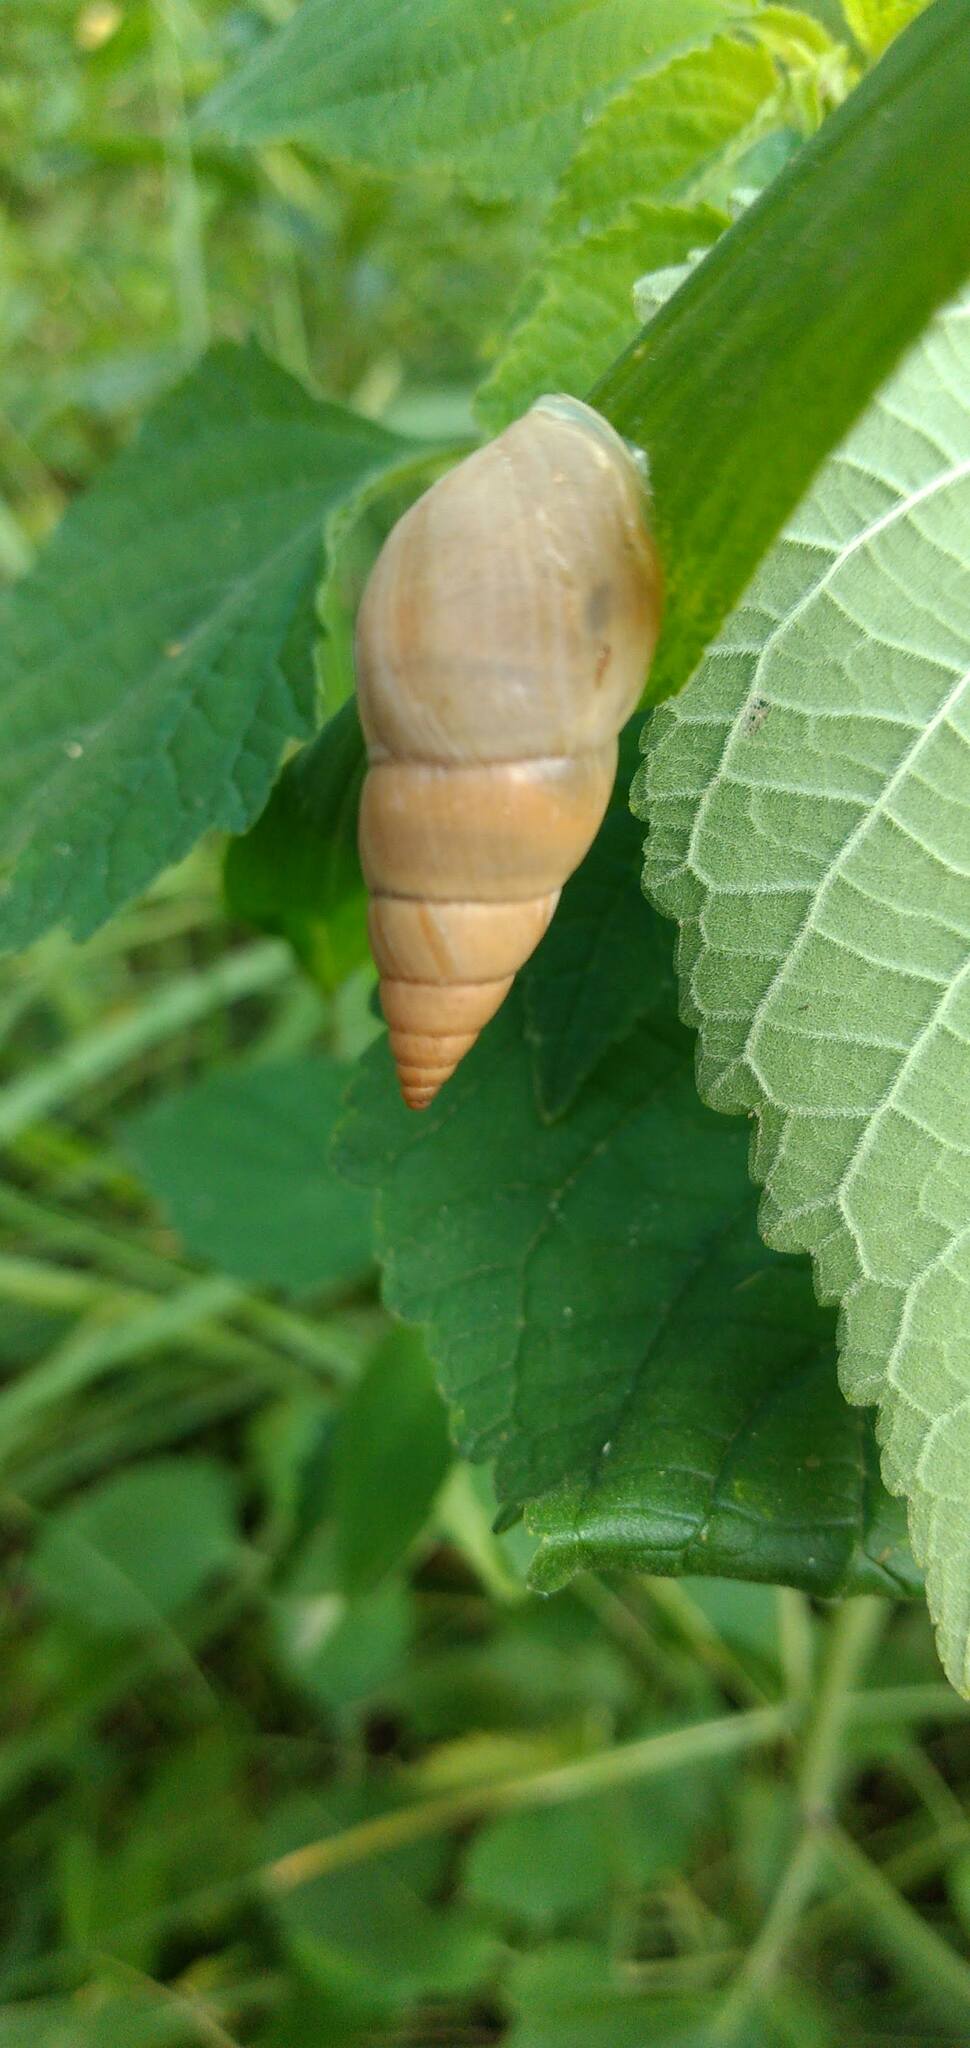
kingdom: Animalia
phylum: Mollusca
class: Gastropoda
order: Stylommatophora
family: Bulimulidae
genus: Bulimulus
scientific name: Bulimulus bonariensis
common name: Snail
